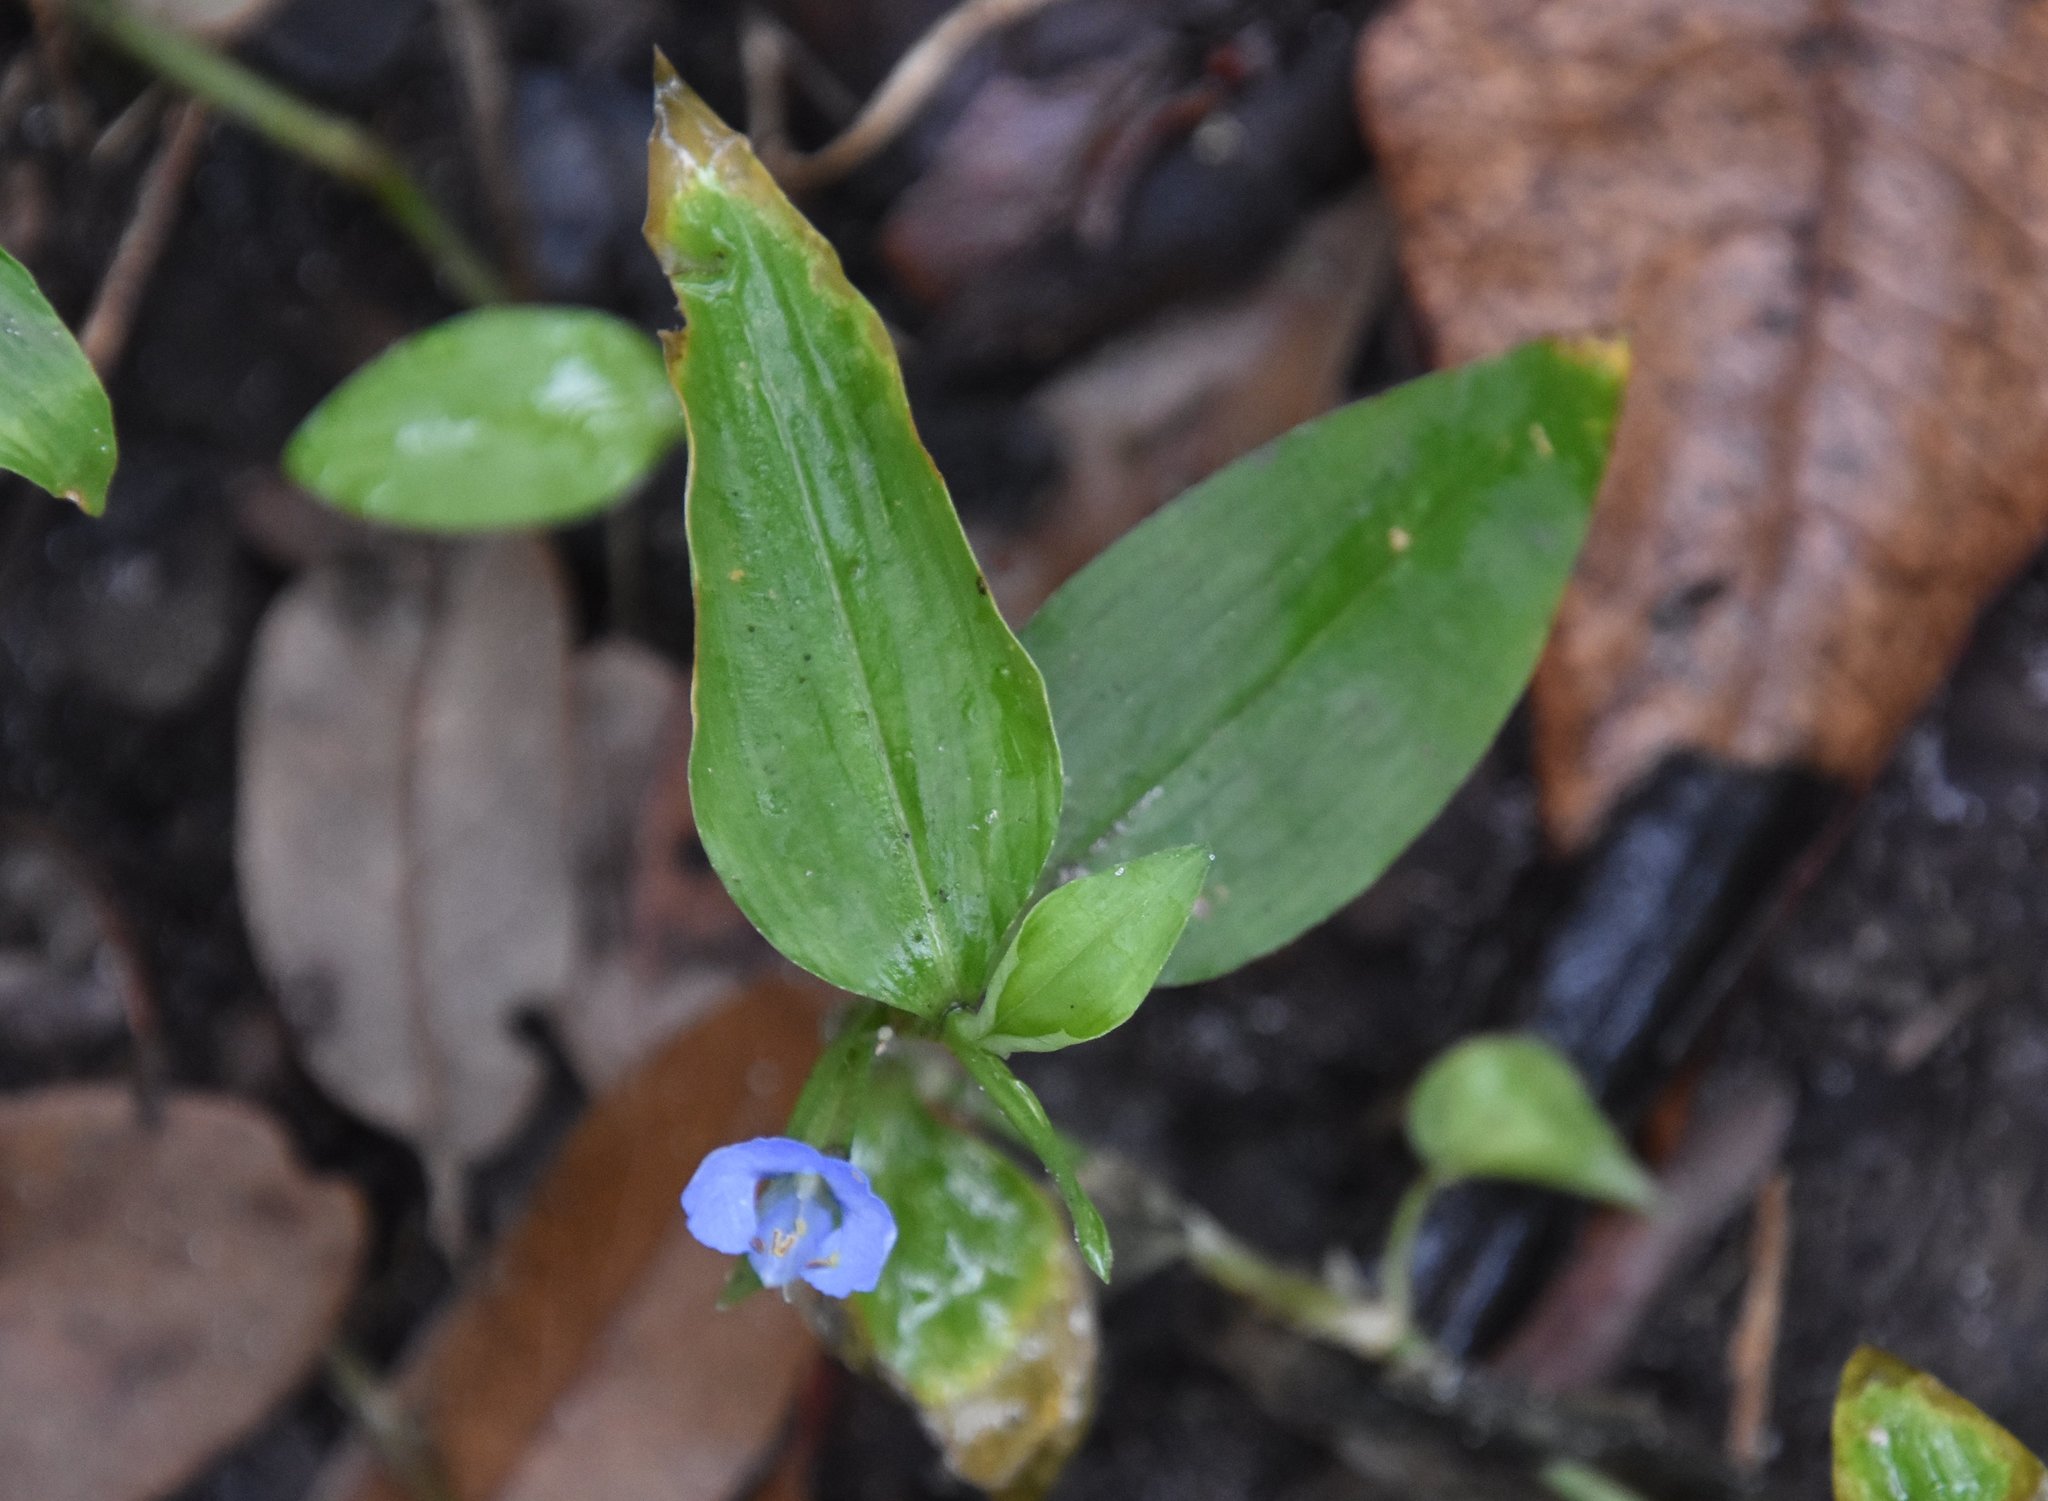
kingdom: Plantae
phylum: Tracheophyta
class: Liliopsida
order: Commelinales
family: Commelinaceae
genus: Commelina
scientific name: Commelina diffusa
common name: Climbing dayflower
